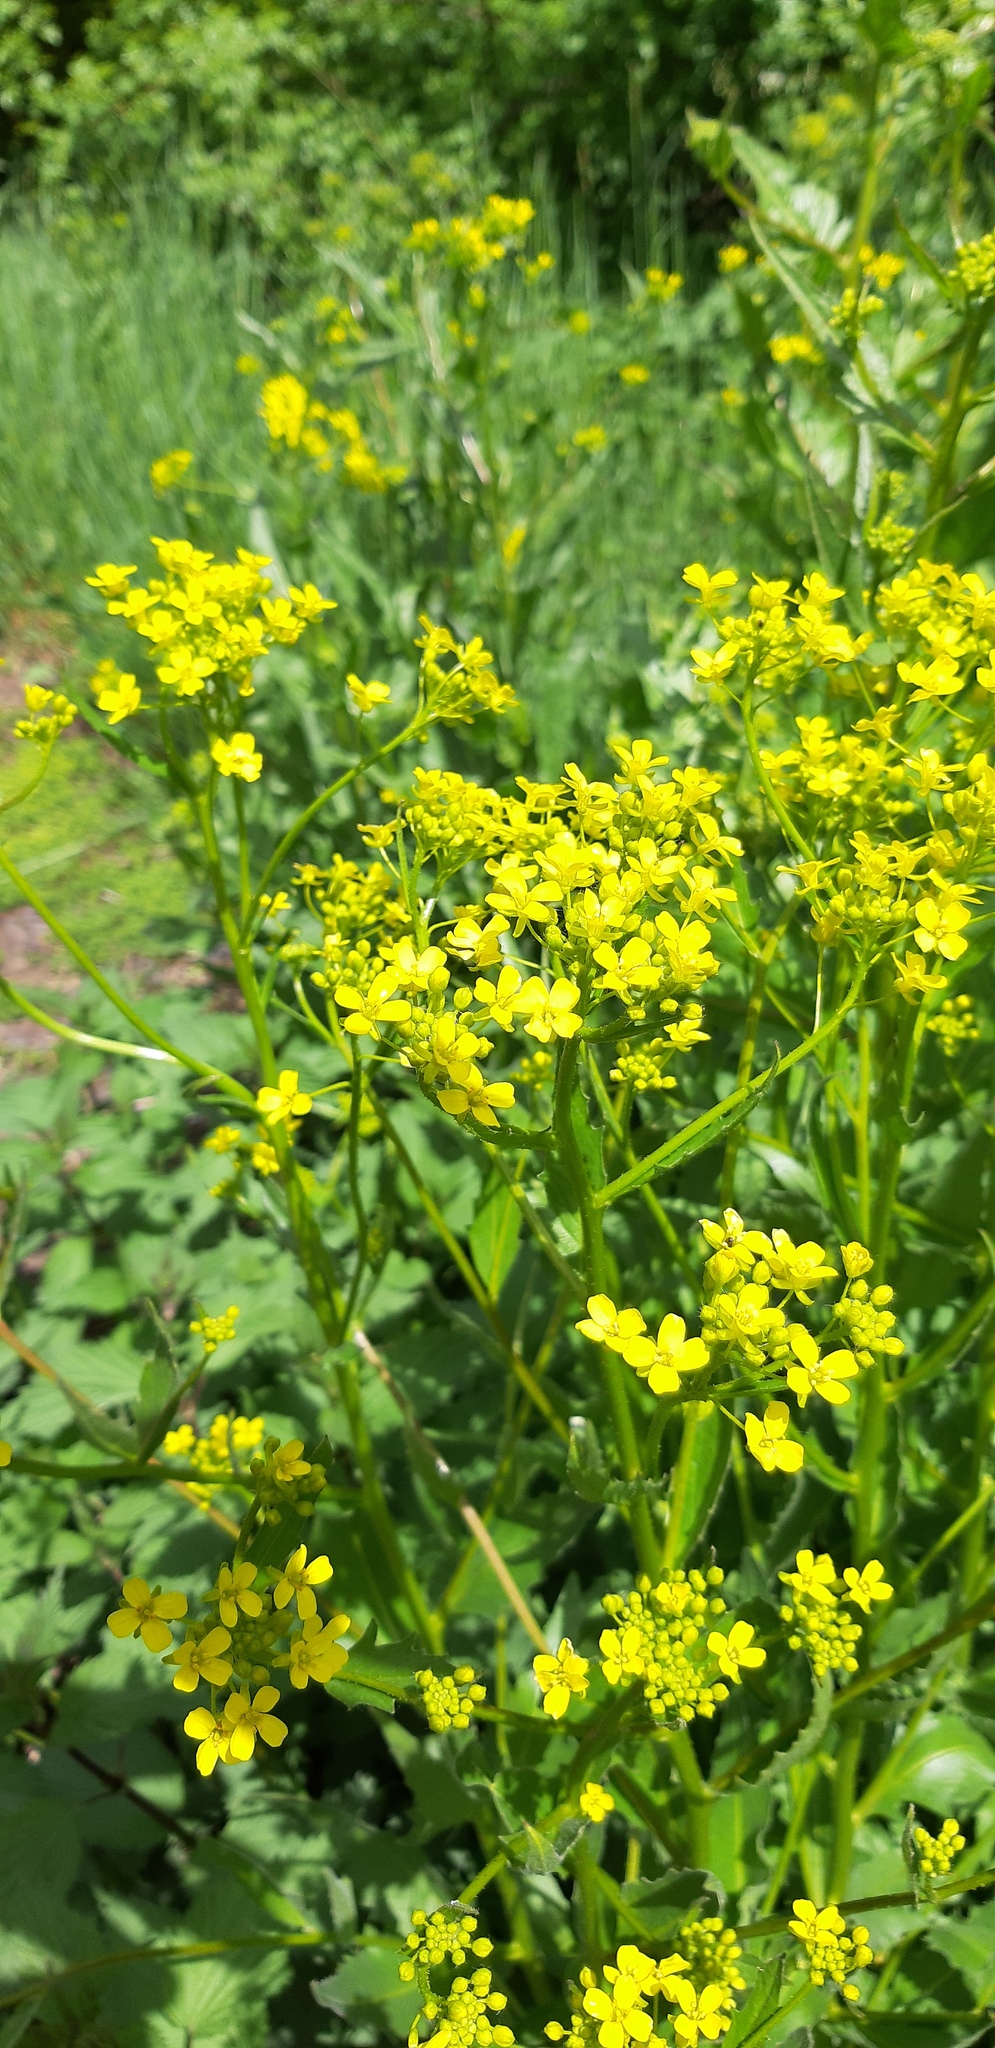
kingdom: Plantae
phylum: Tracheophyta
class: Magnoliopsida
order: Brassicales
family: Brassicaceae
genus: Bunias
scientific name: Bunias orientalis
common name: Warty-cabbage
